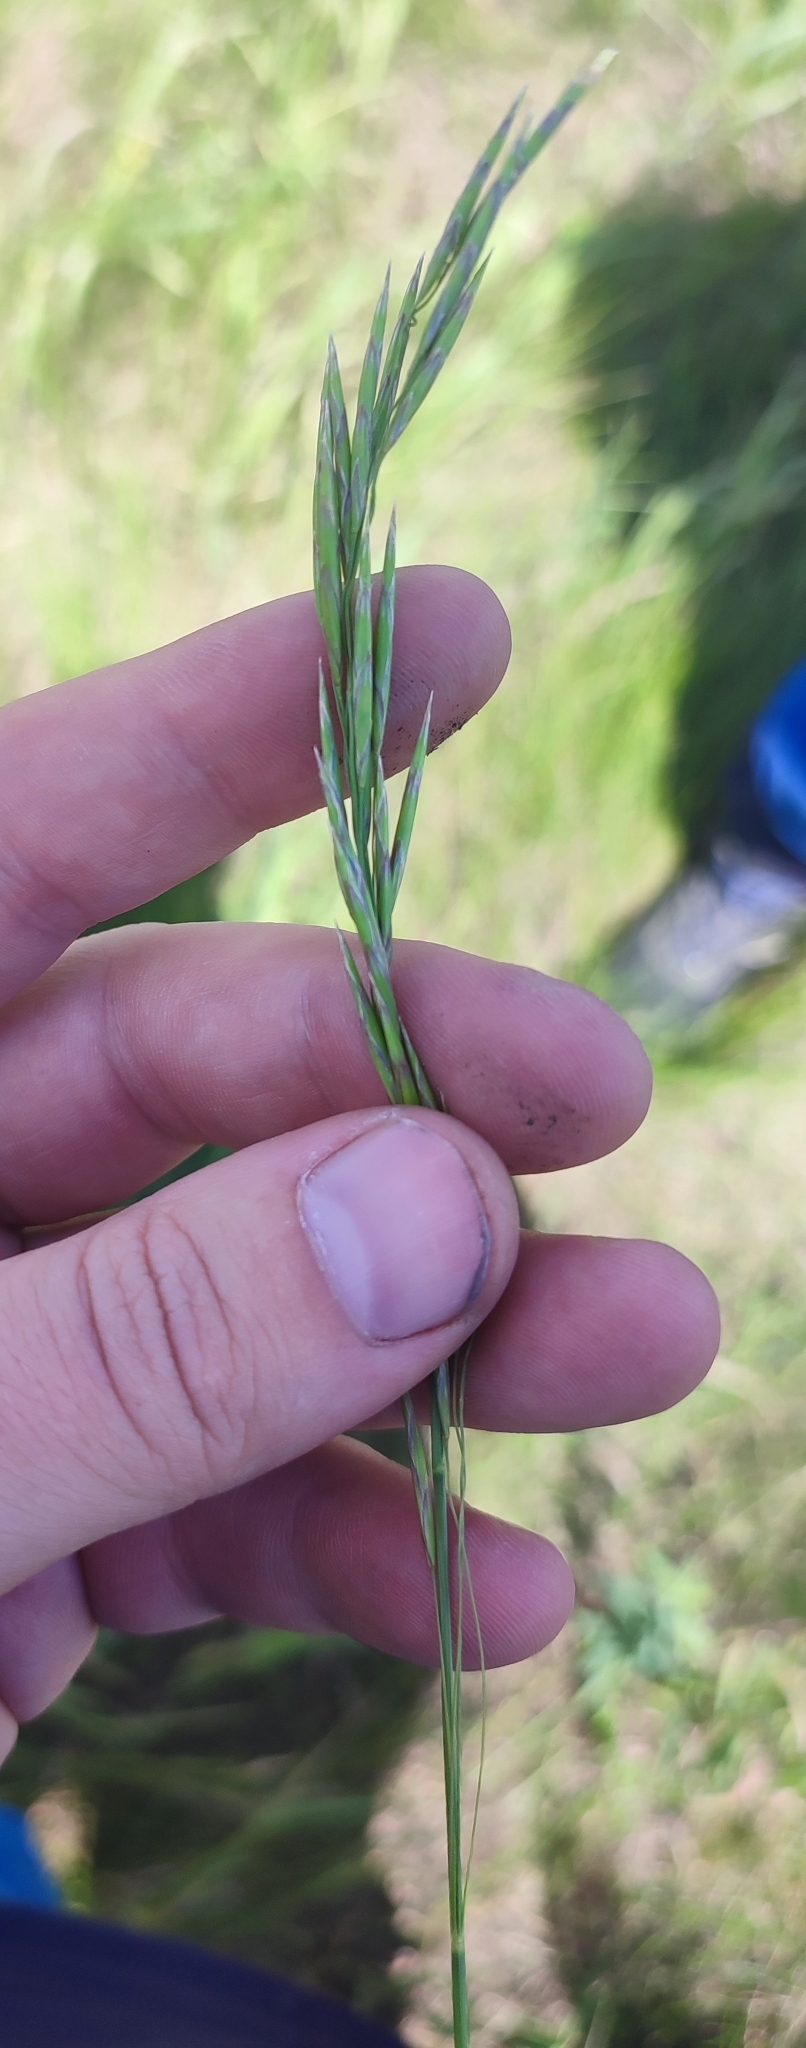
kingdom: Plantae
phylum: Tracheophyta
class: Liliopsida
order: Poales
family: Poaceae
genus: Bromus
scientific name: Bromus inermis
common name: Smooth brome
